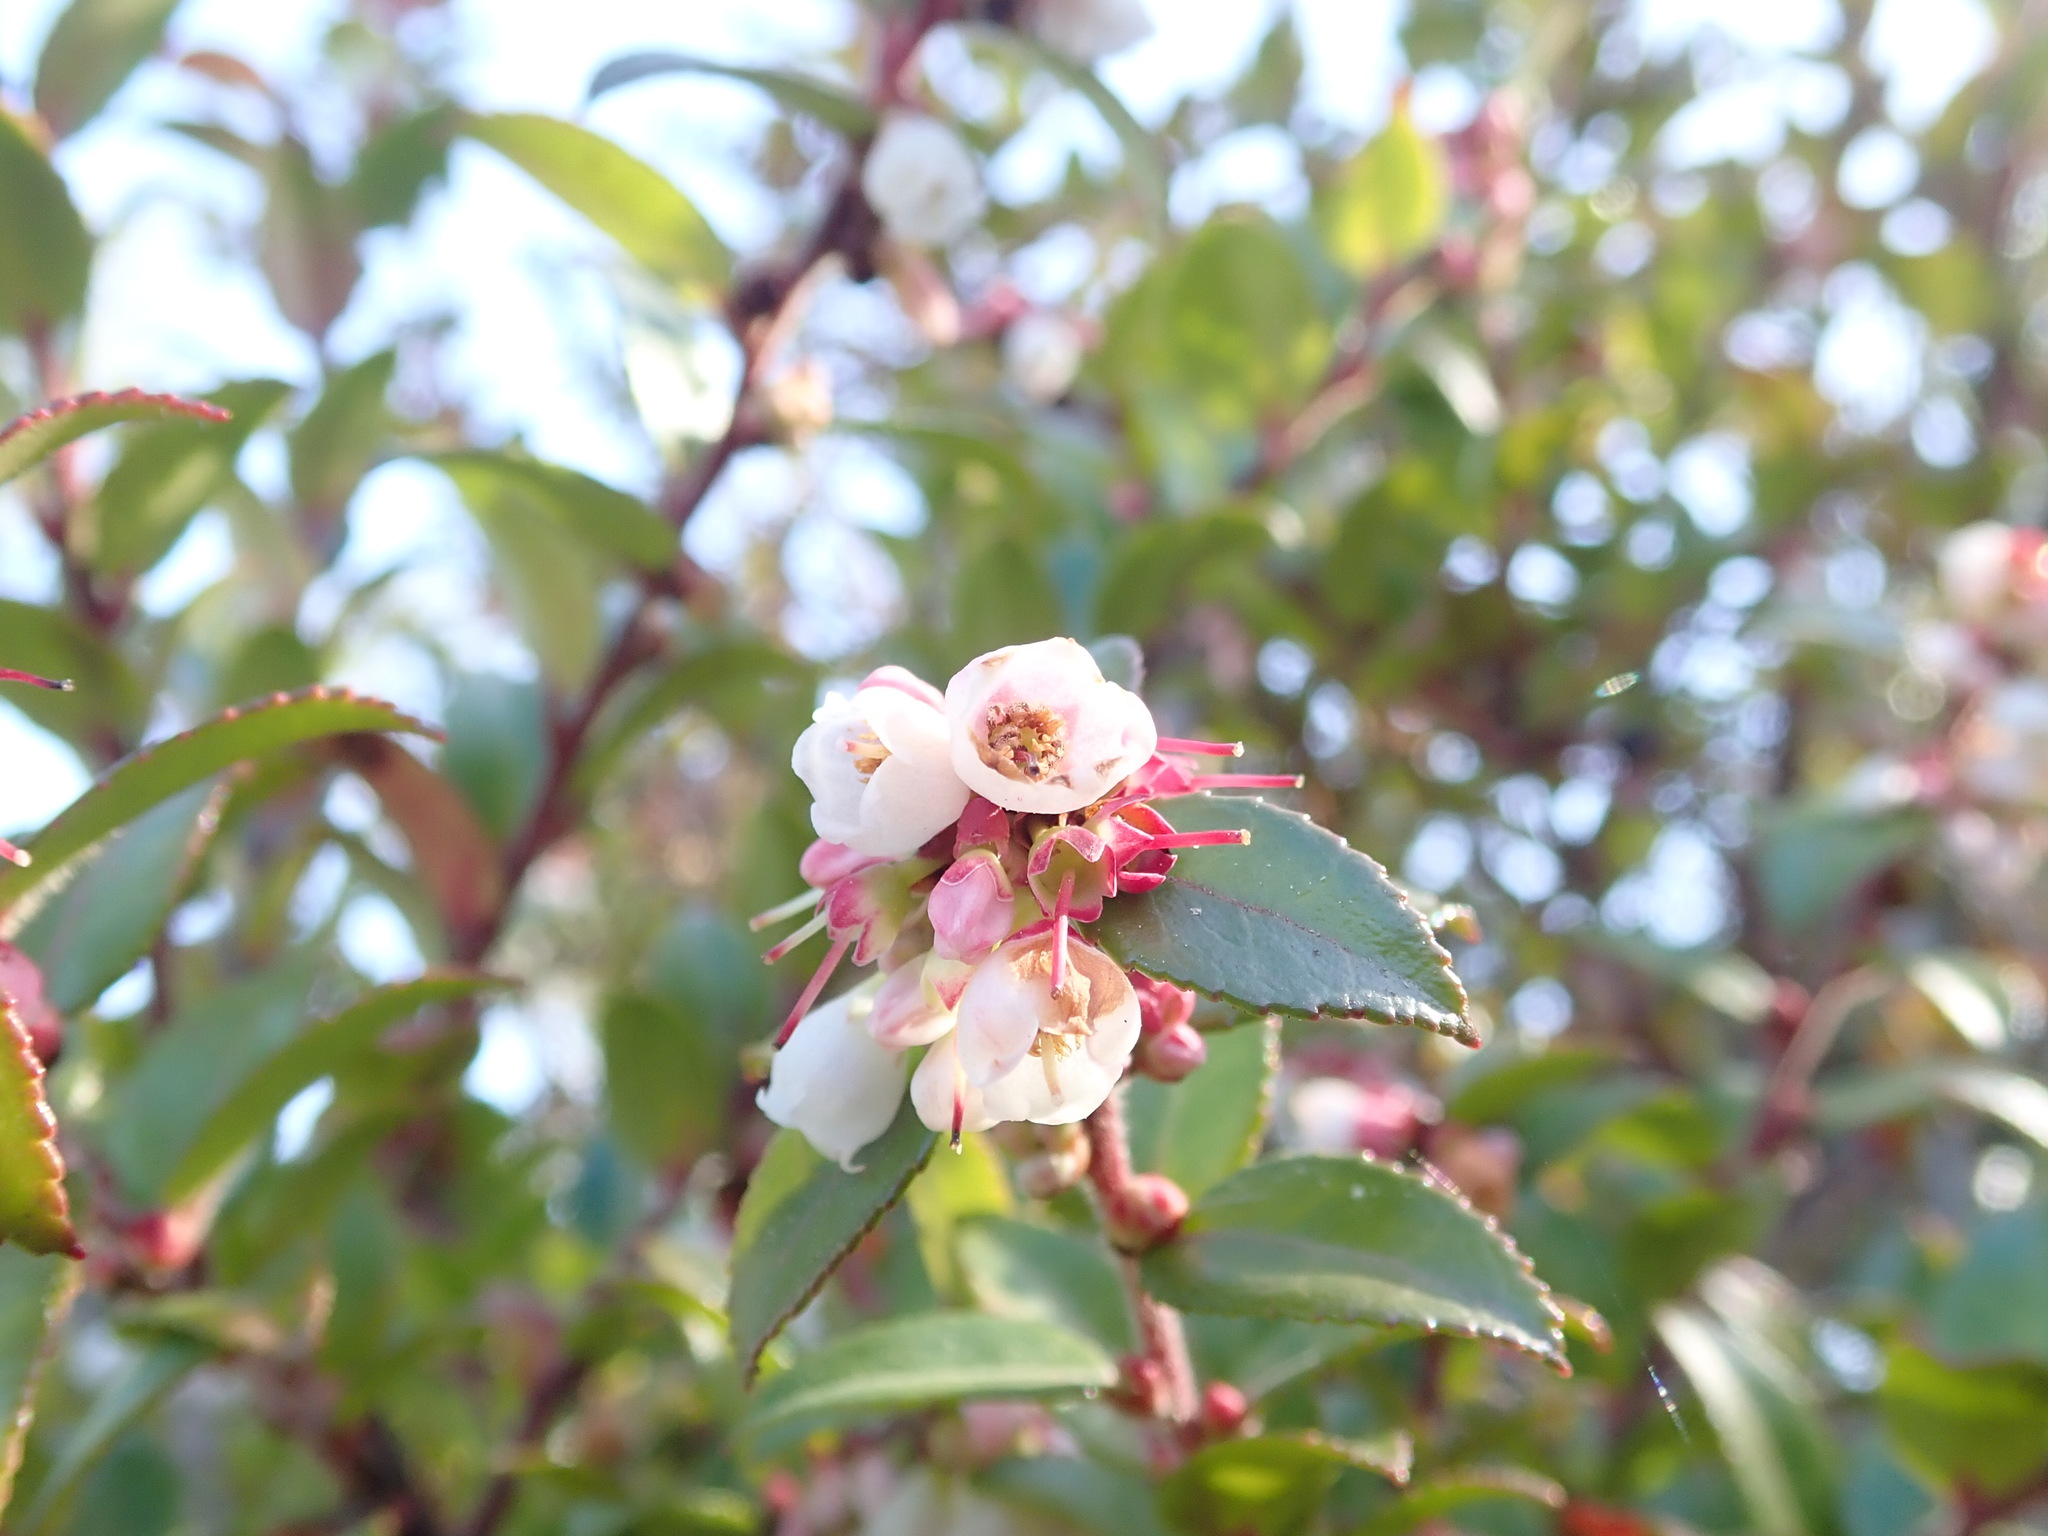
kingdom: Plantae
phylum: Tracheophyta
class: Magnoliopsida
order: Ericales
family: Ericaceae
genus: Vaccinium
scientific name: Vaccinium ovatum
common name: California-huckleberry
